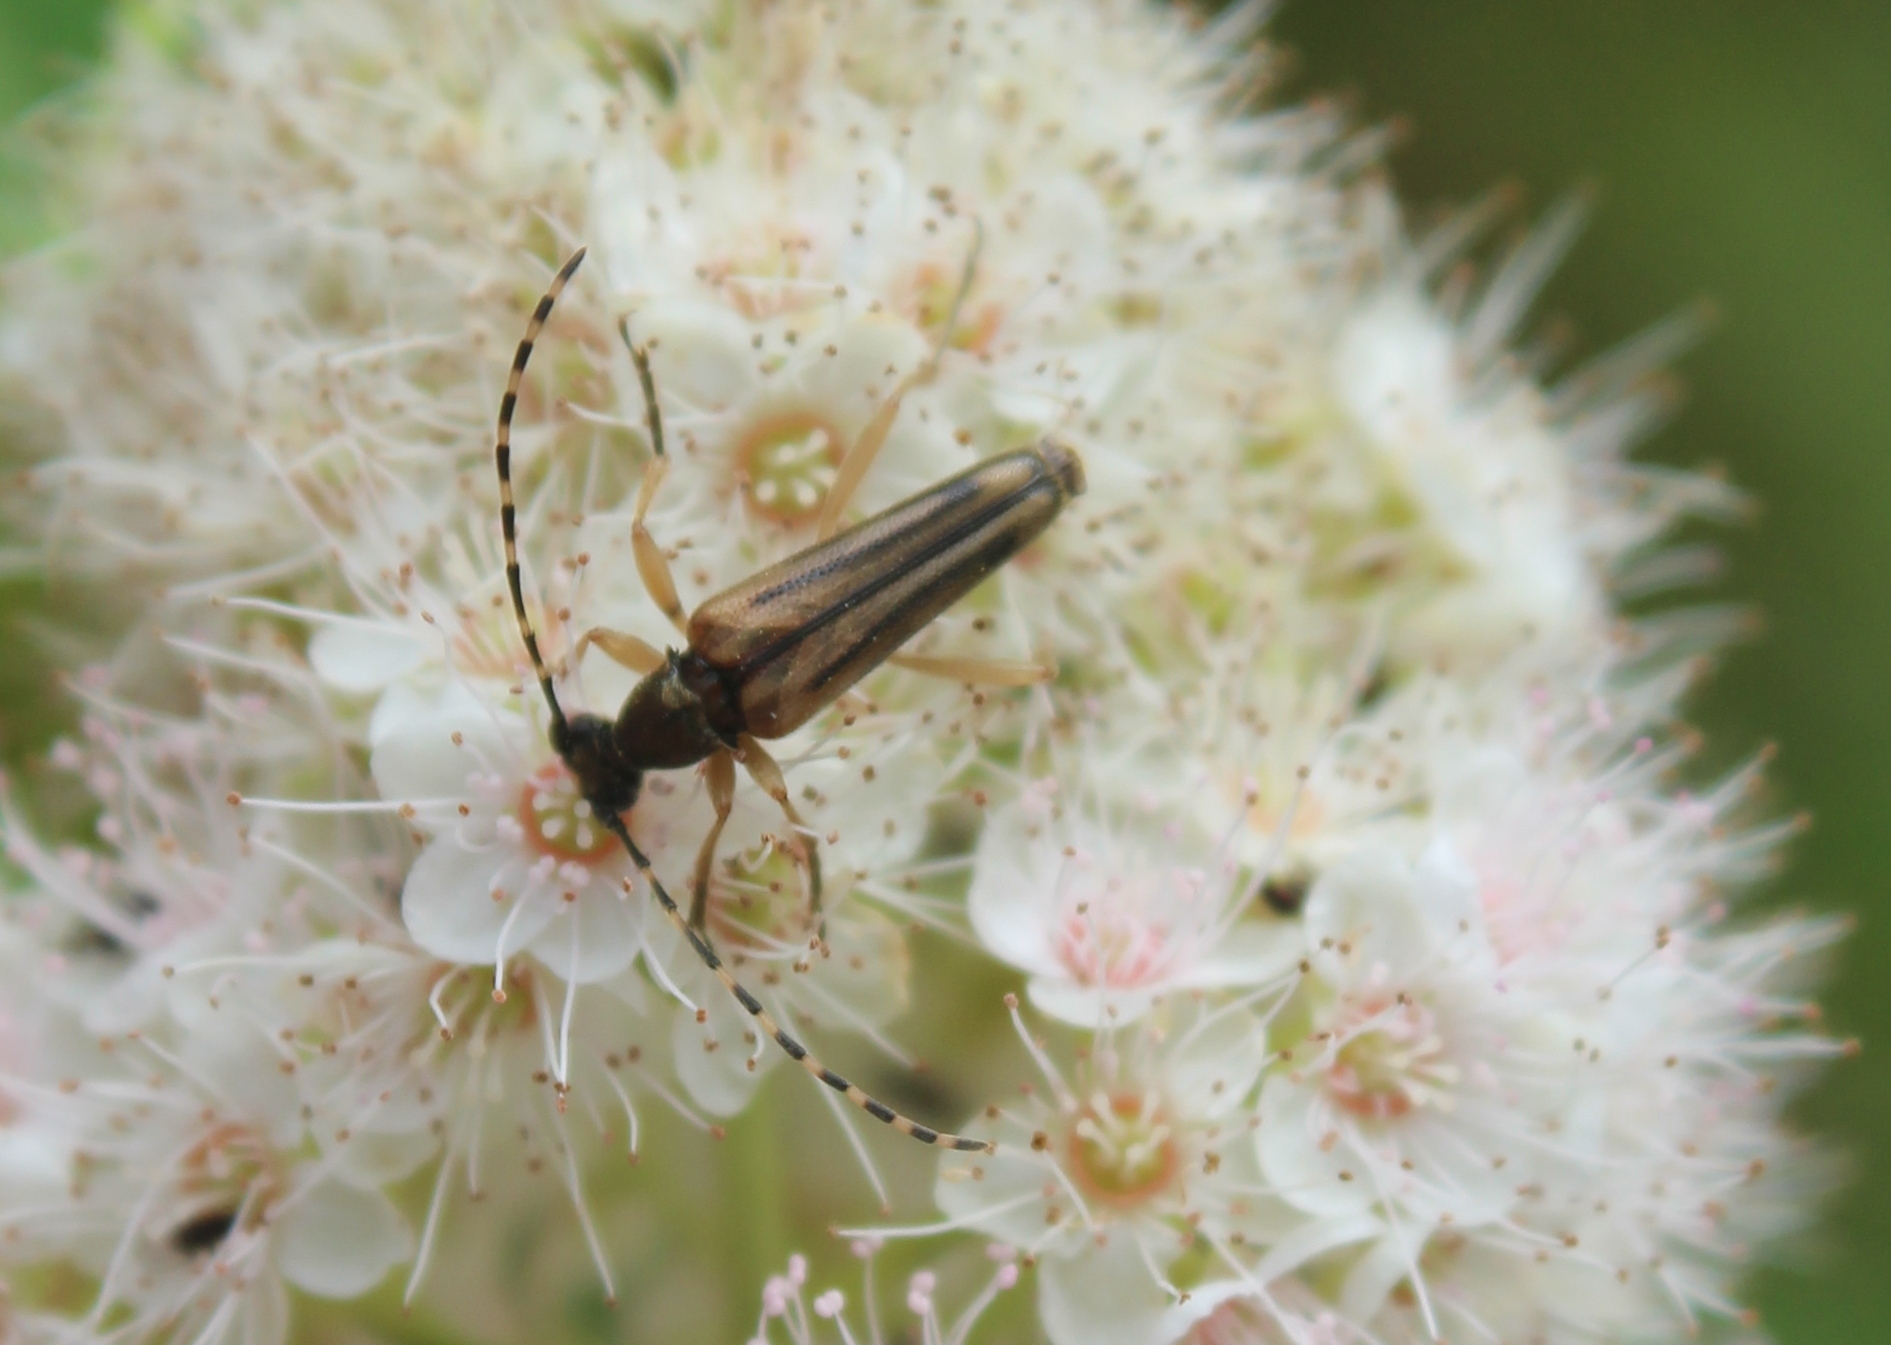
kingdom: Animalia
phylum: Arthropoda
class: Insecta
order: Coleoptera
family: Cerambycidae
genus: Analeptura
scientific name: Analeptura lineola
